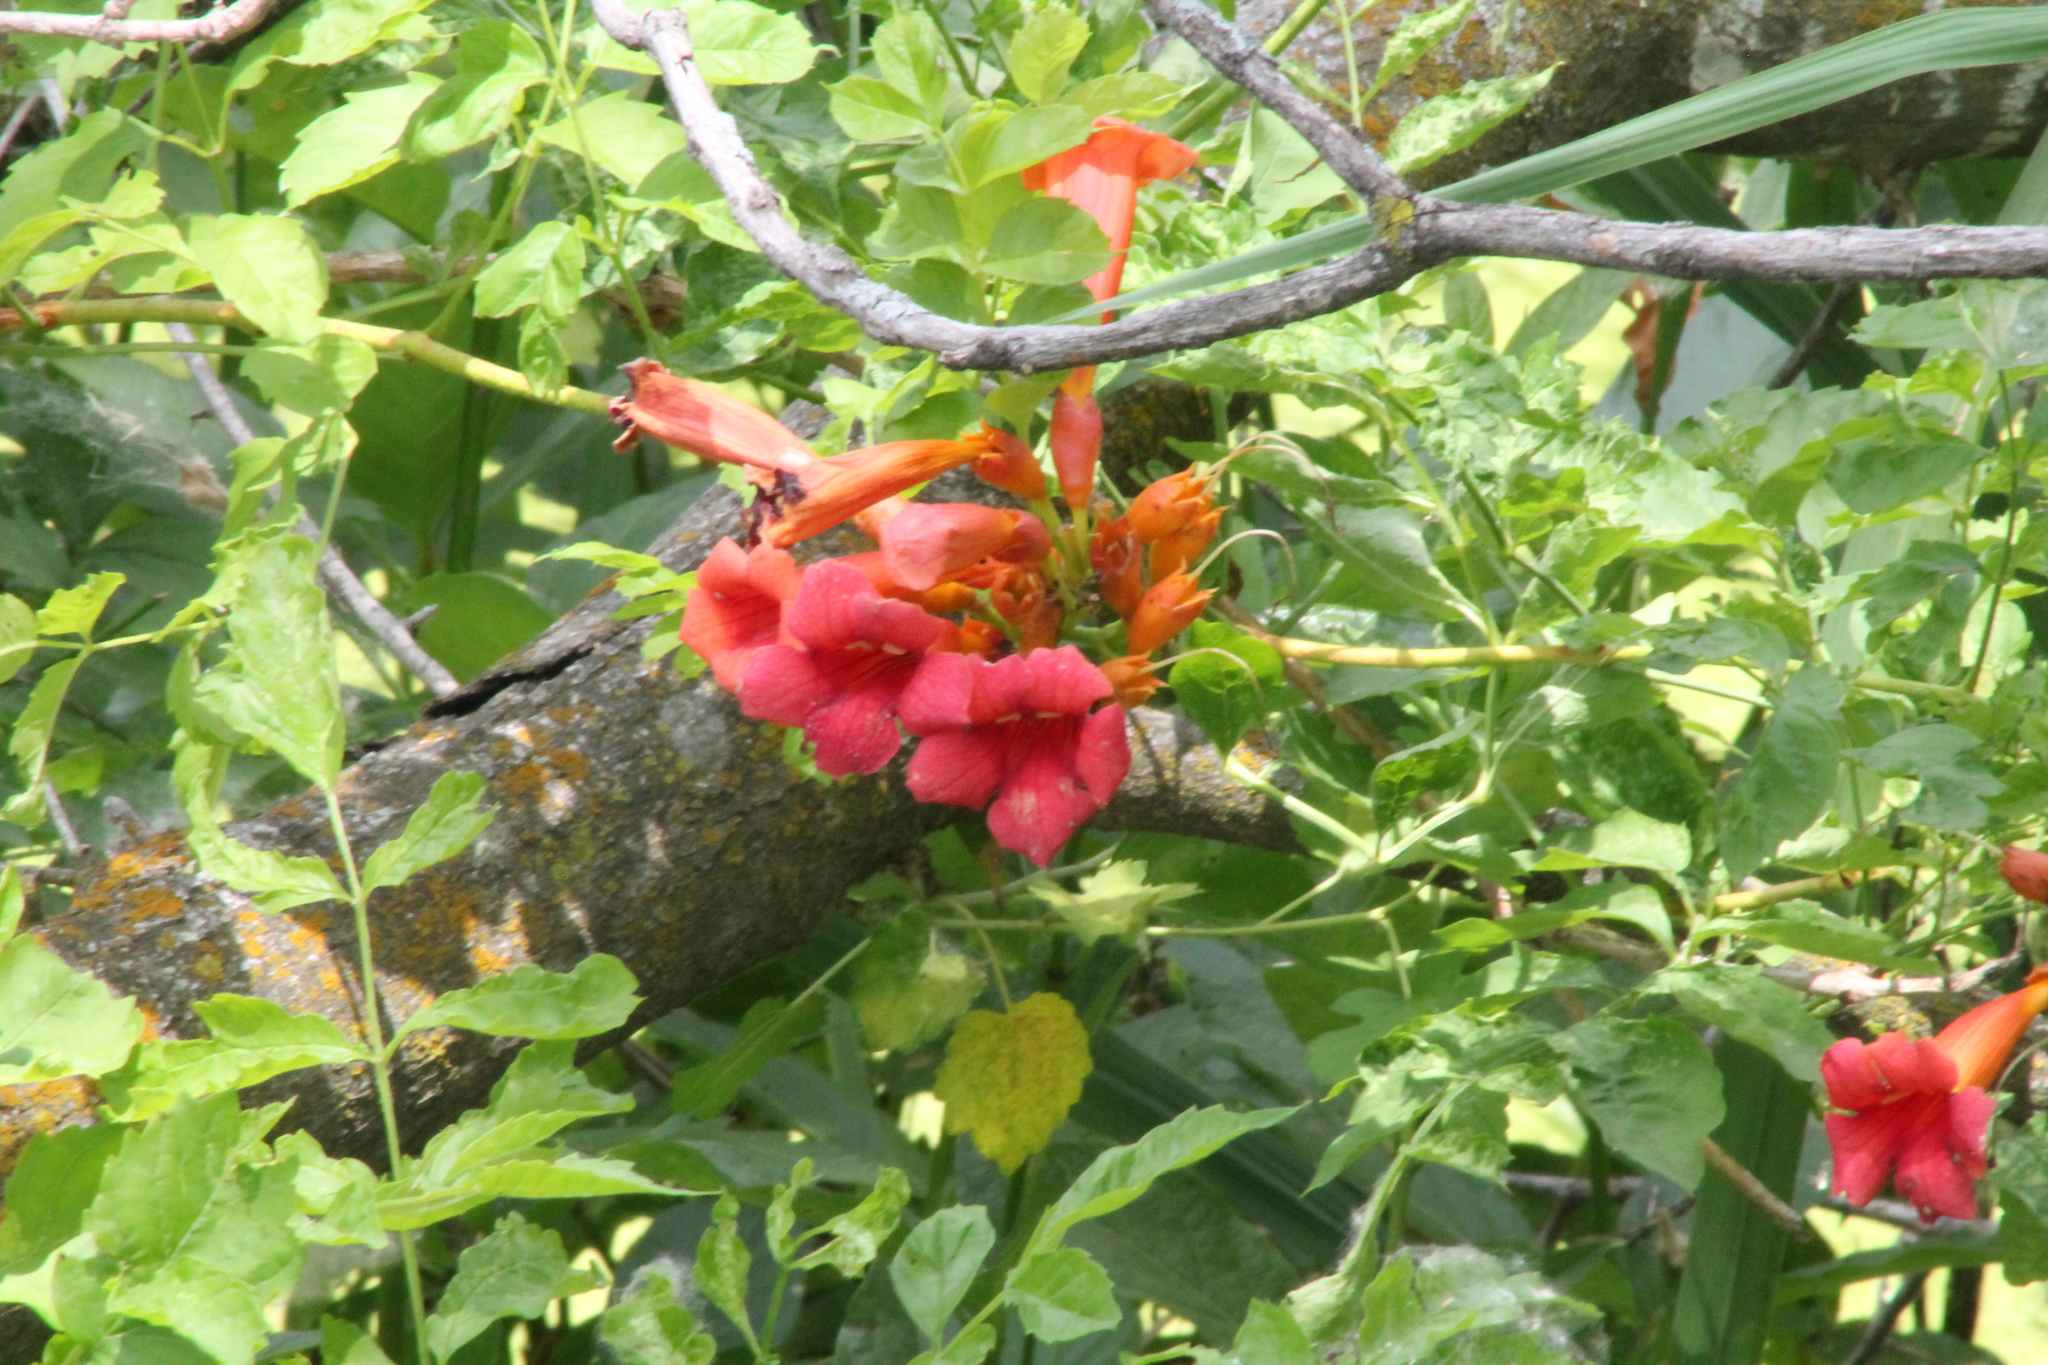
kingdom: Plantae
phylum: Tracheophyta
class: Magnoliopsida
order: Lamiales
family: Bignoniaceae
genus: Campsis
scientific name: Campsis radicans
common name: Trumpet-creeper
